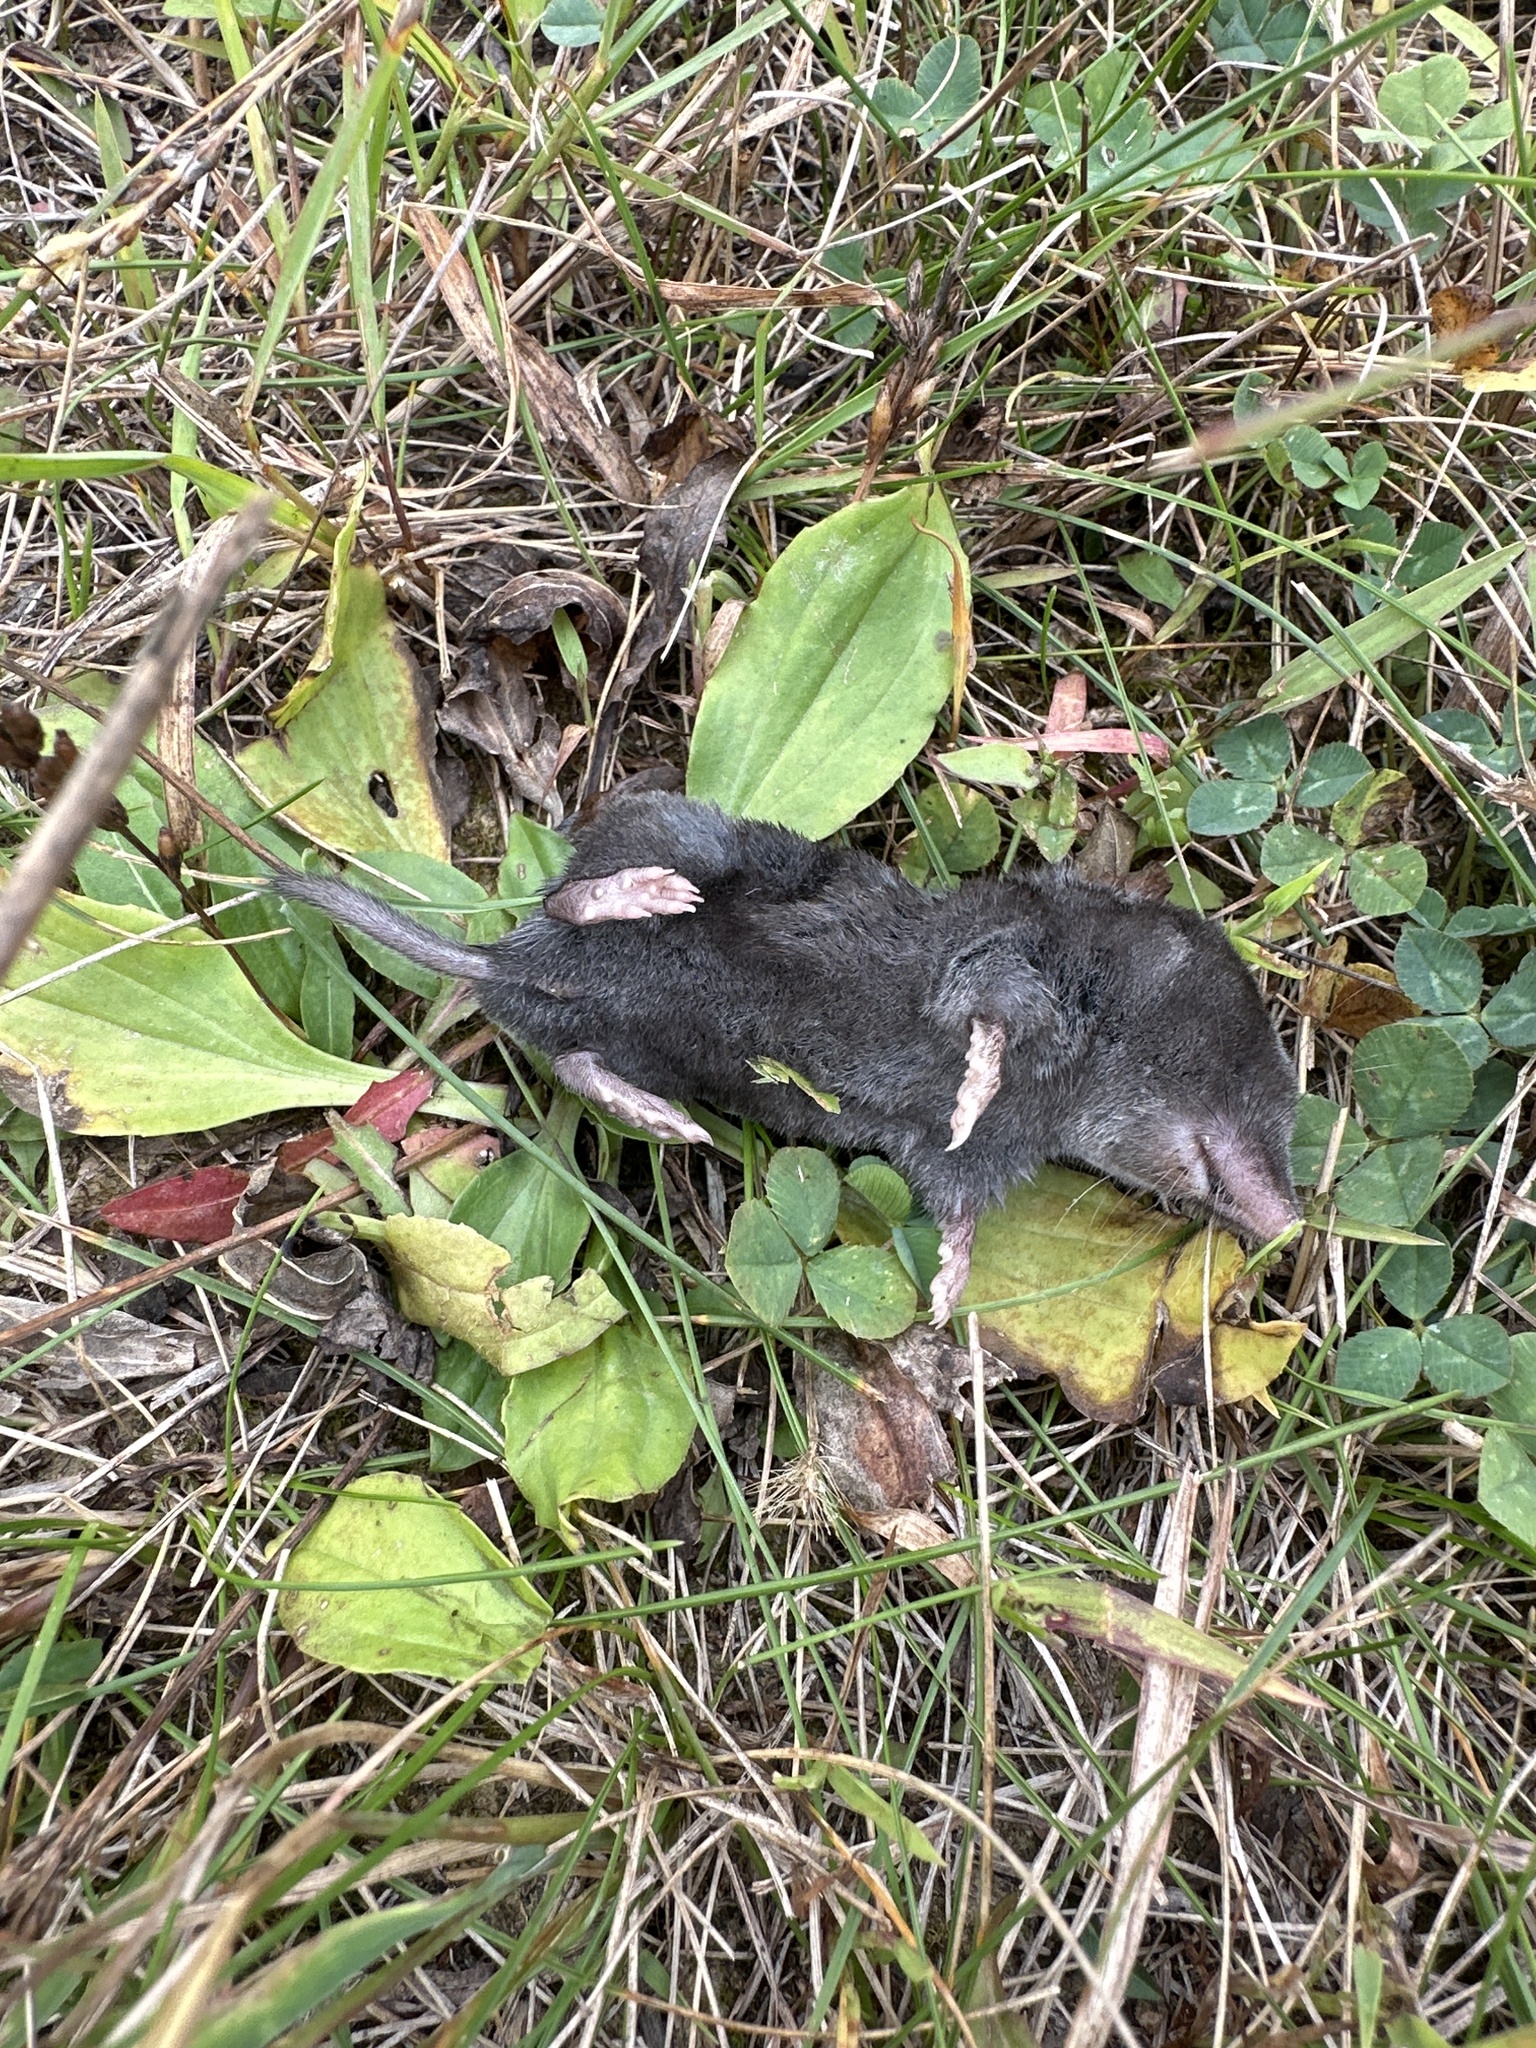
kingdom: Animalia
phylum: Chordata
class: Mammalia
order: Soricomorpha
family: Soricidae
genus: Blarina
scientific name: Blarina brevicauda
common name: Northern short-tailed shrew
